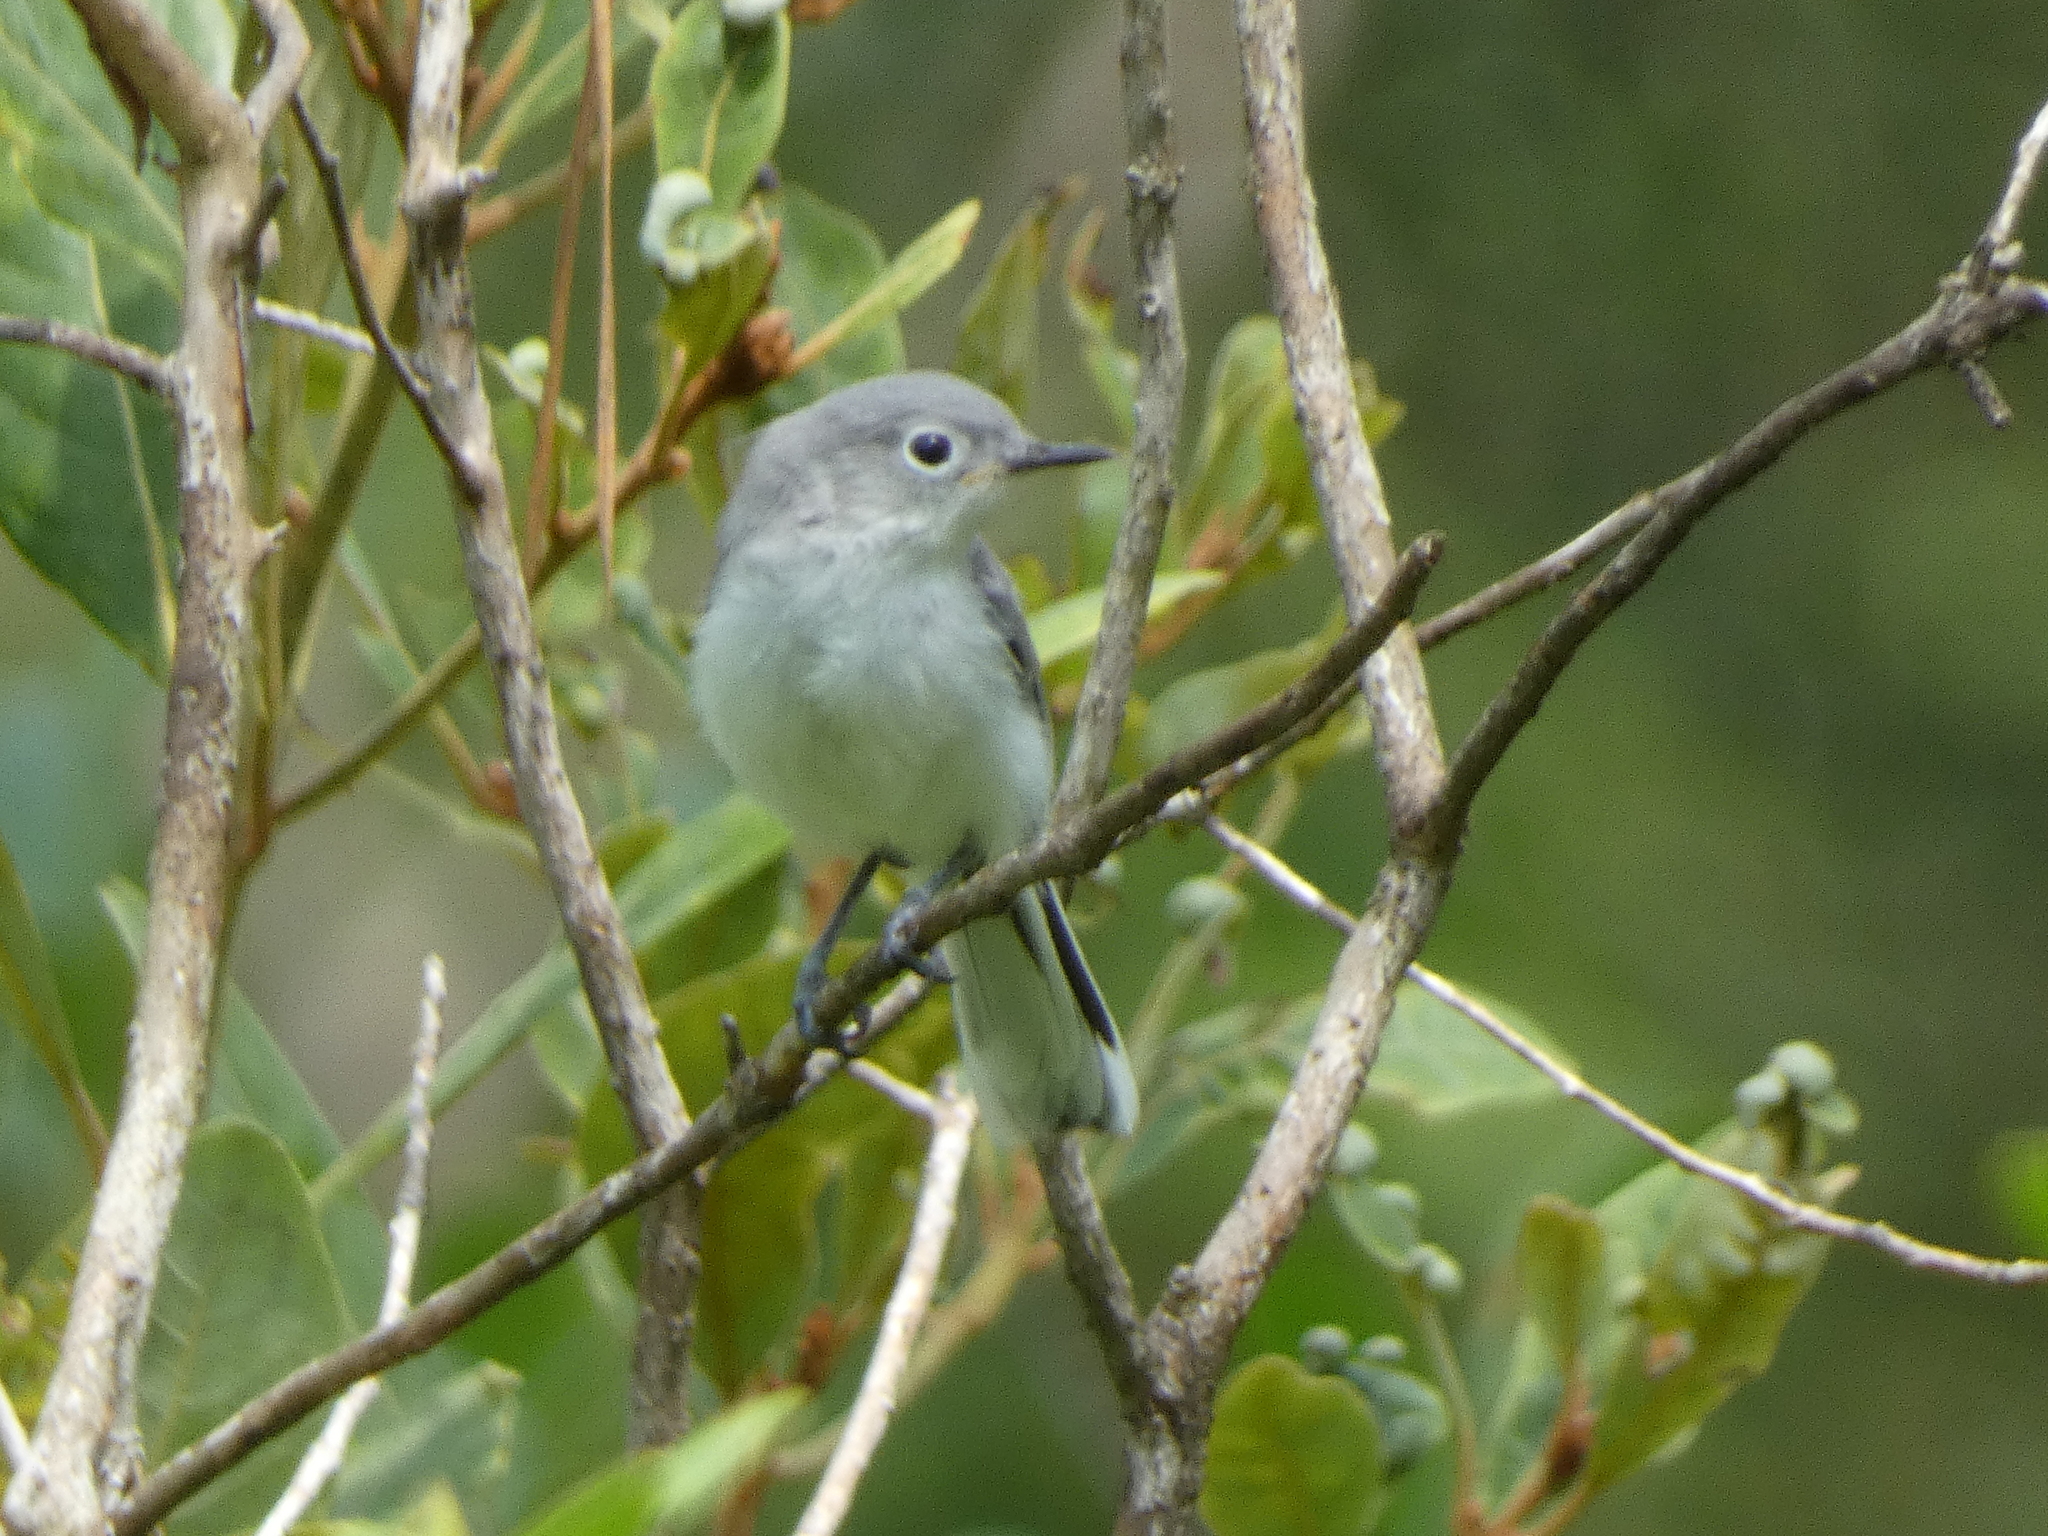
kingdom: Animalia
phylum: Chordata
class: Aves
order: Passeriformes
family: Polioptilidae
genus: Polioptila
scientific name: Polioptila caerulea
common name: Blue-gray gnatcatcher
